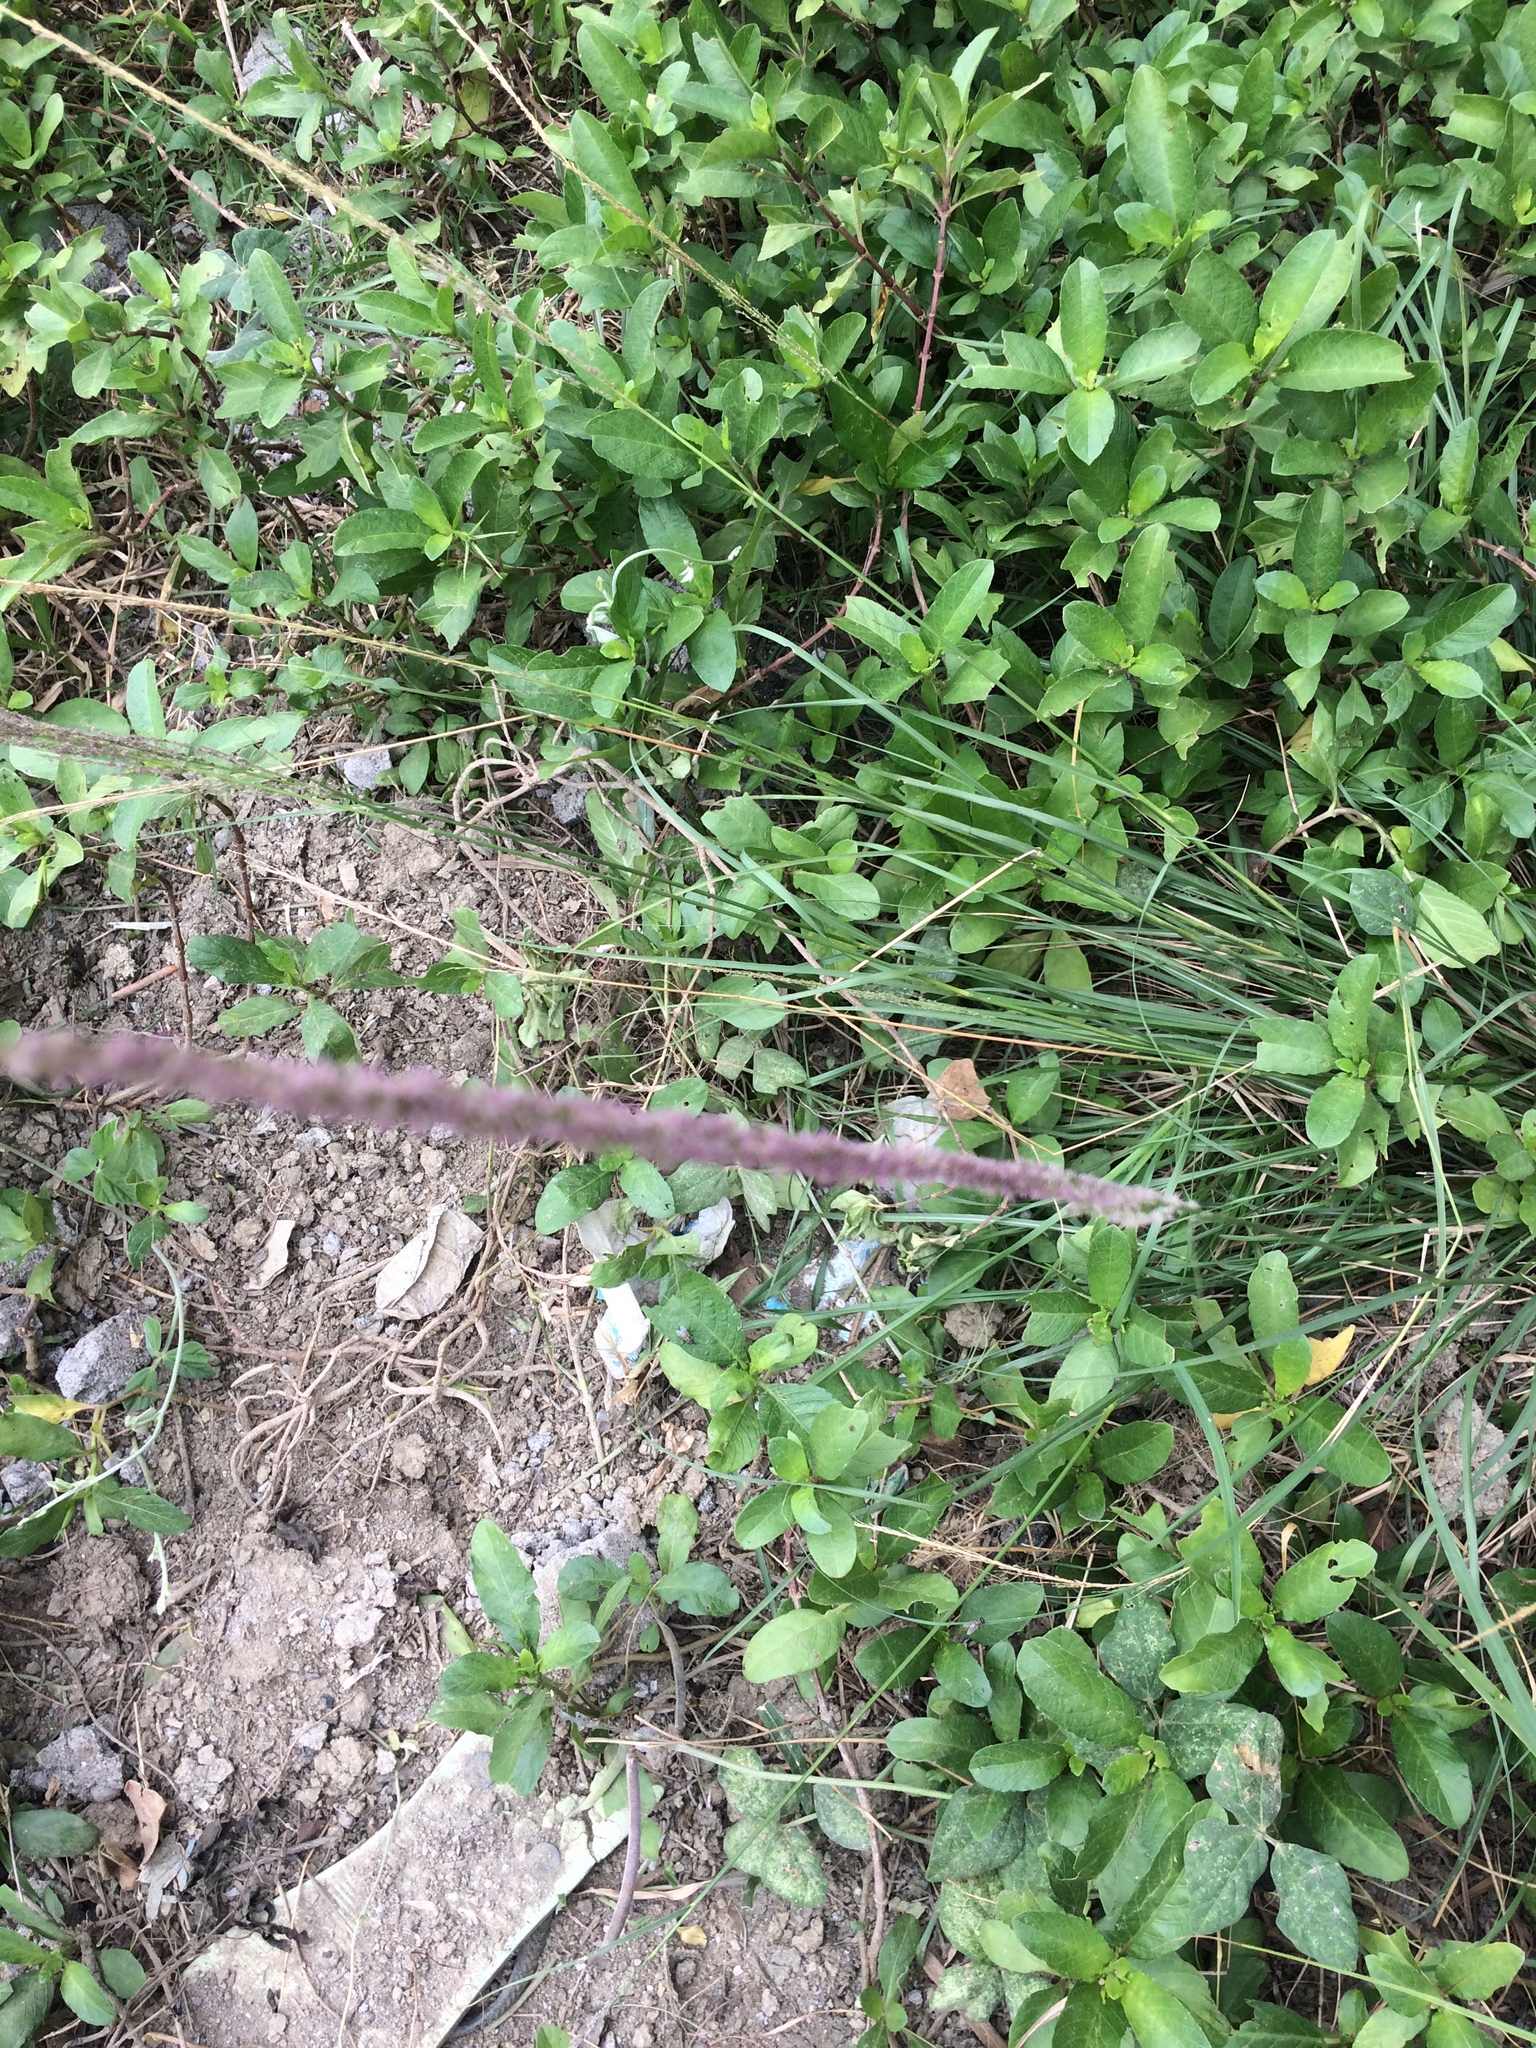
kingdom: Plantae
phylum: Tracheophyta
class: Magnoliopsida
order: Lamiales
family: Acanthaceae
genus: Ruellia
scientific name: Ruellia tuberosa
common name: Devil's bit
